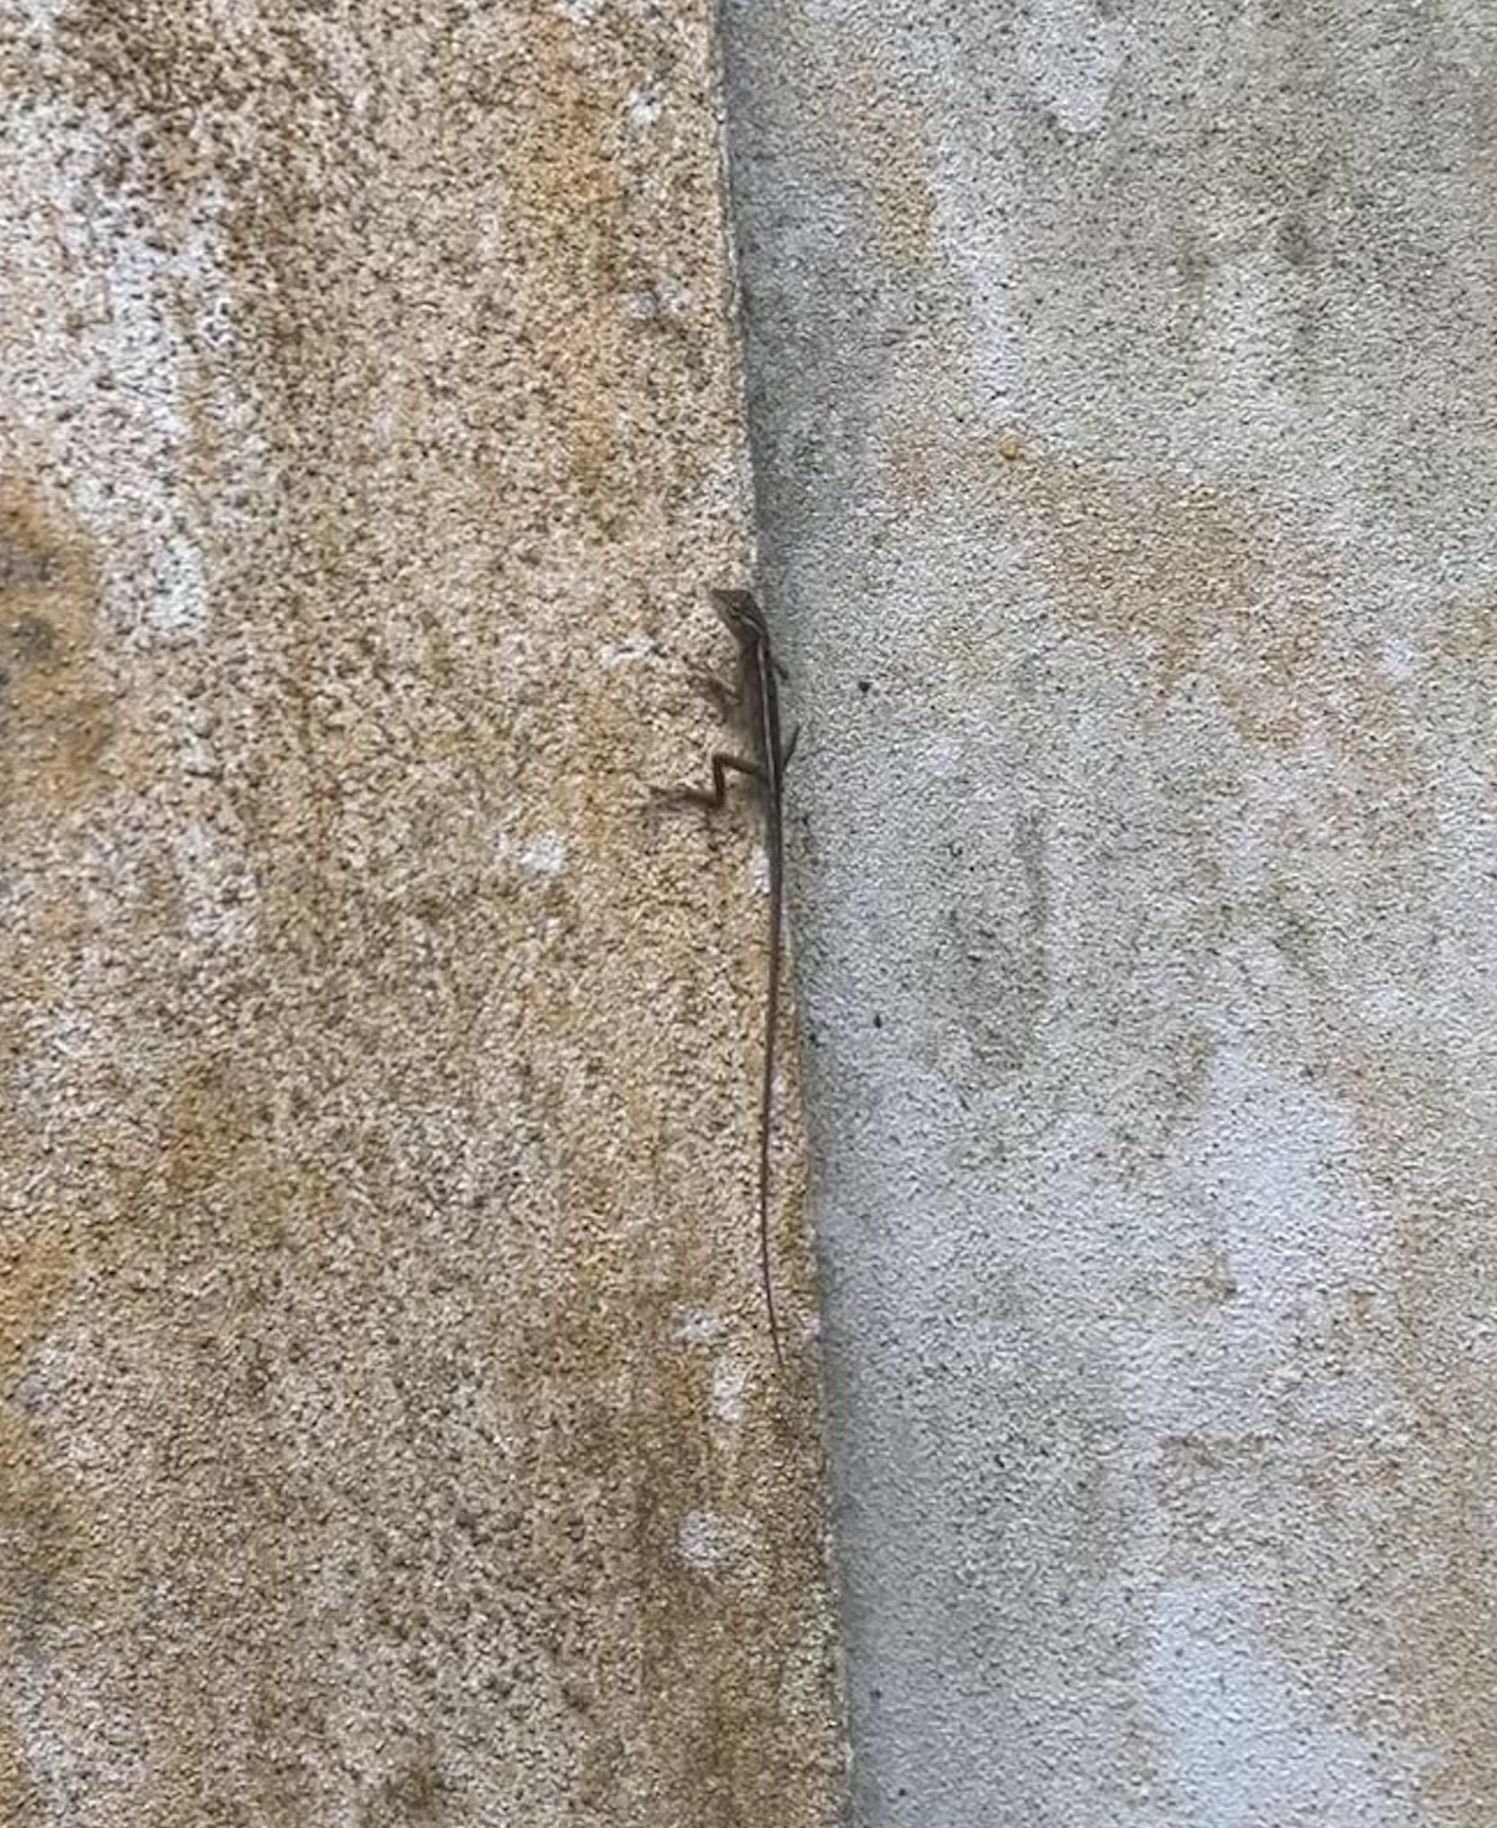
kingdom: Animalia
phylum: Chordata
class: Squamata
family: Agamidae
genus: Calotes
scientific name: Calotes versicolor
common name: Oriental garden lizard
